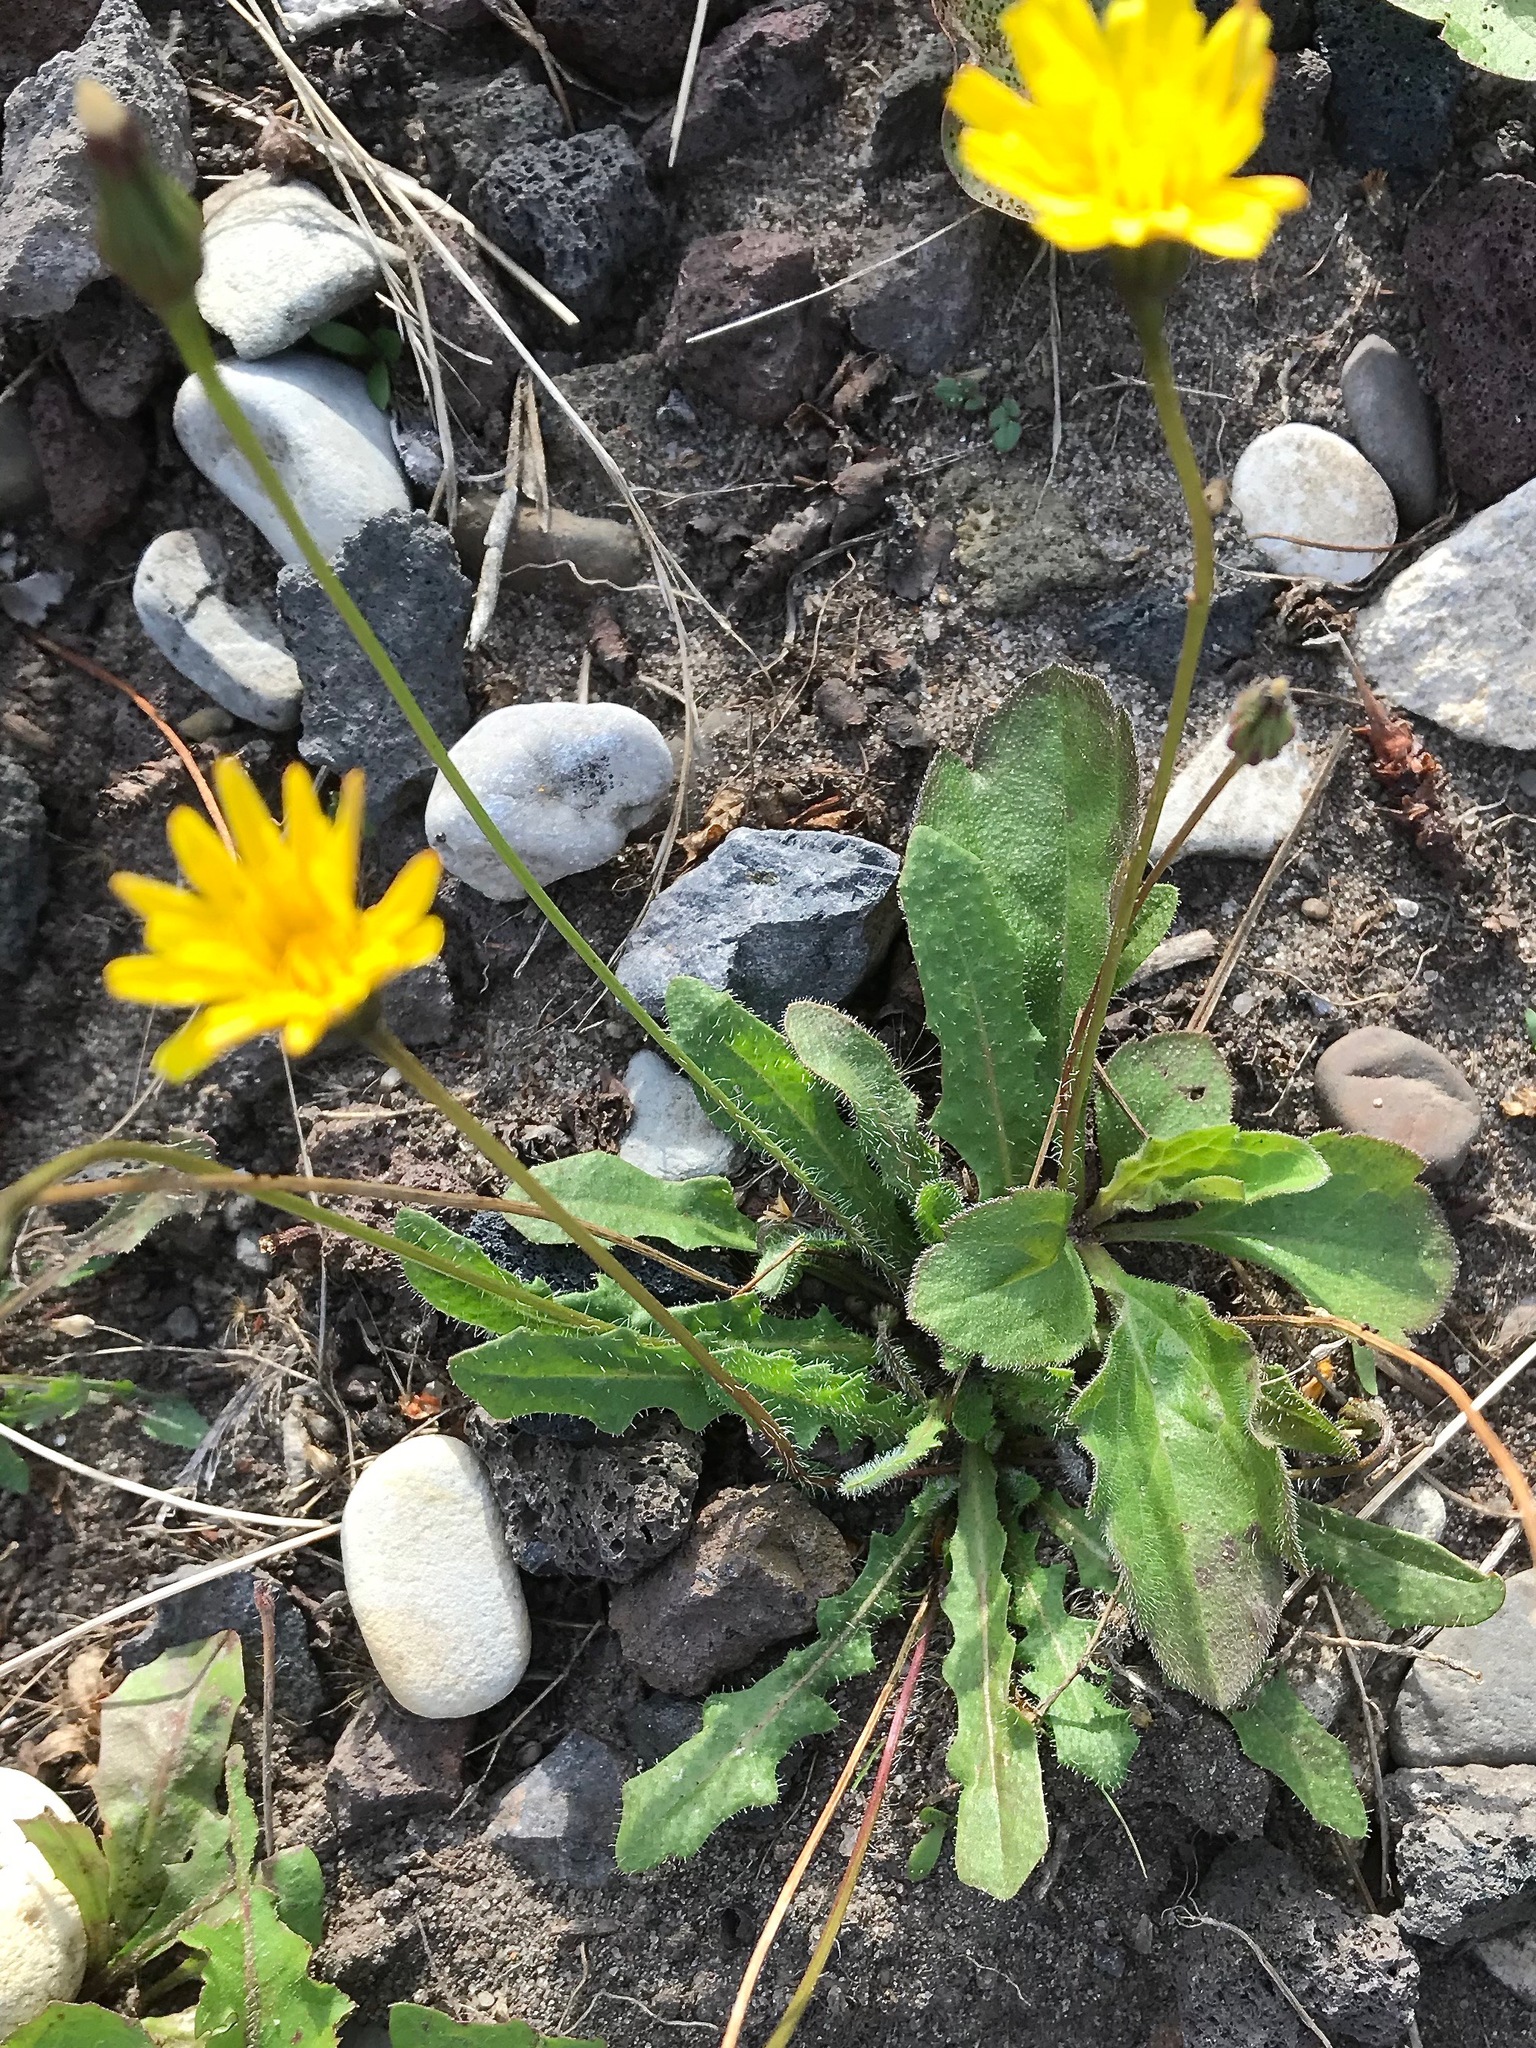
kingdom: Plantae
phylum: Tracheophyta
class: Magnoliopsida
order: Asterales
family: Asteraceae
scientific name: Asteraceae
